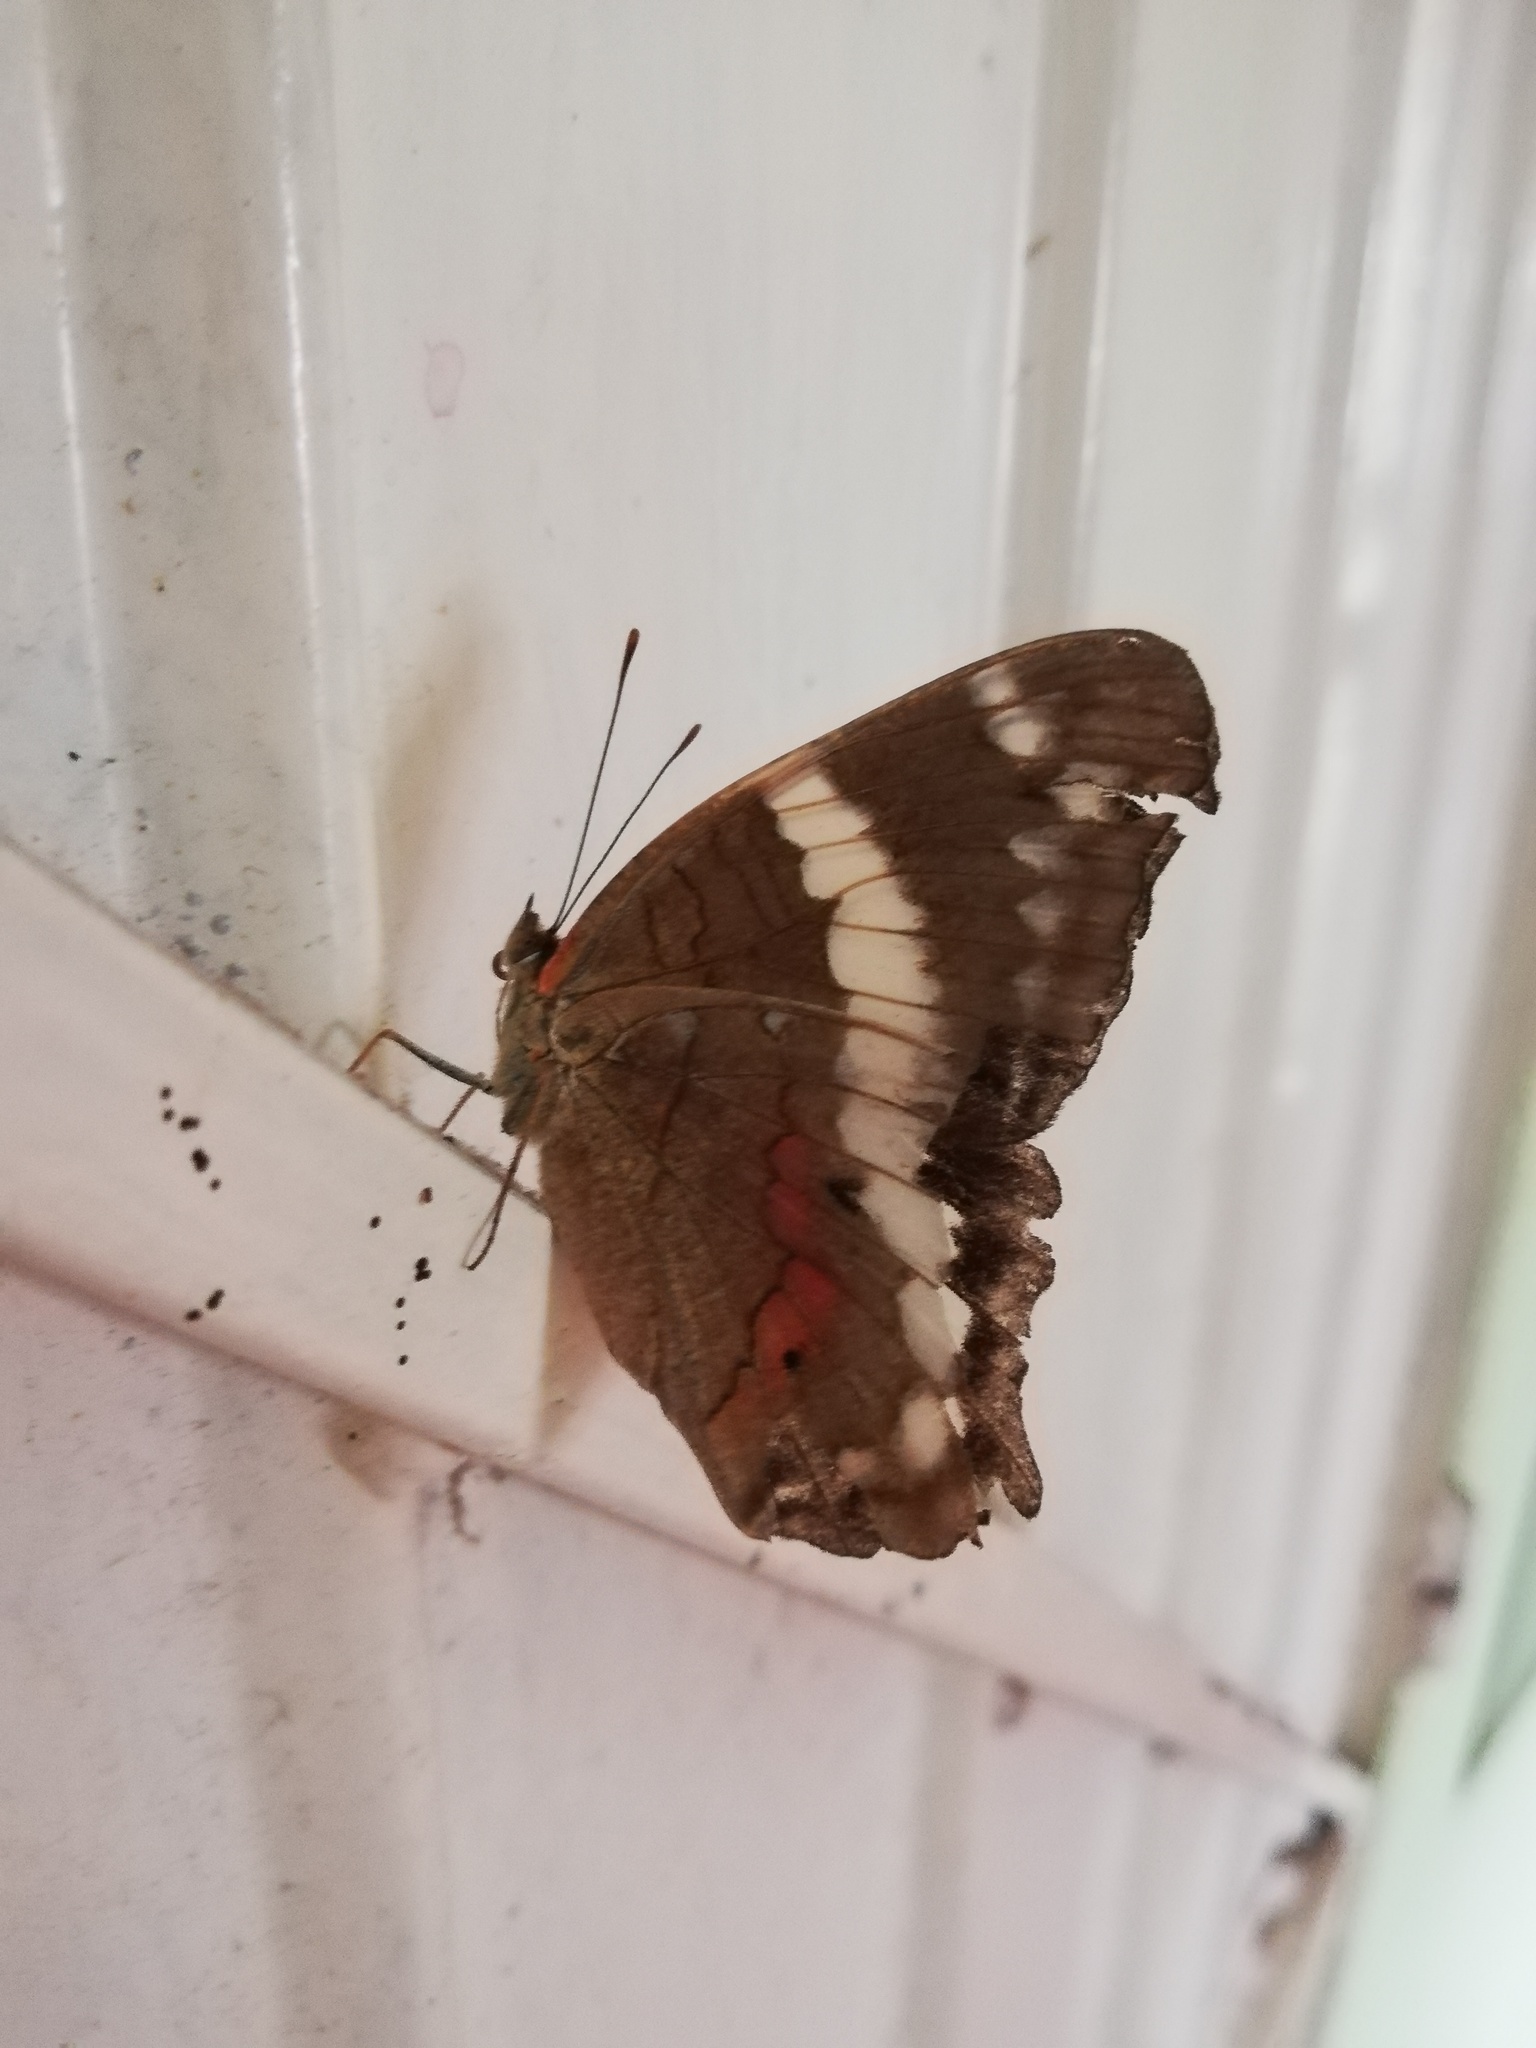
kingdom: Animalia
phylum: Arthropoda
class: Insecta
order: Lepidoptera
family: Nymphalidae
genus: Anartia
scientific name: Anartia fatima
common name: Banded peacock
